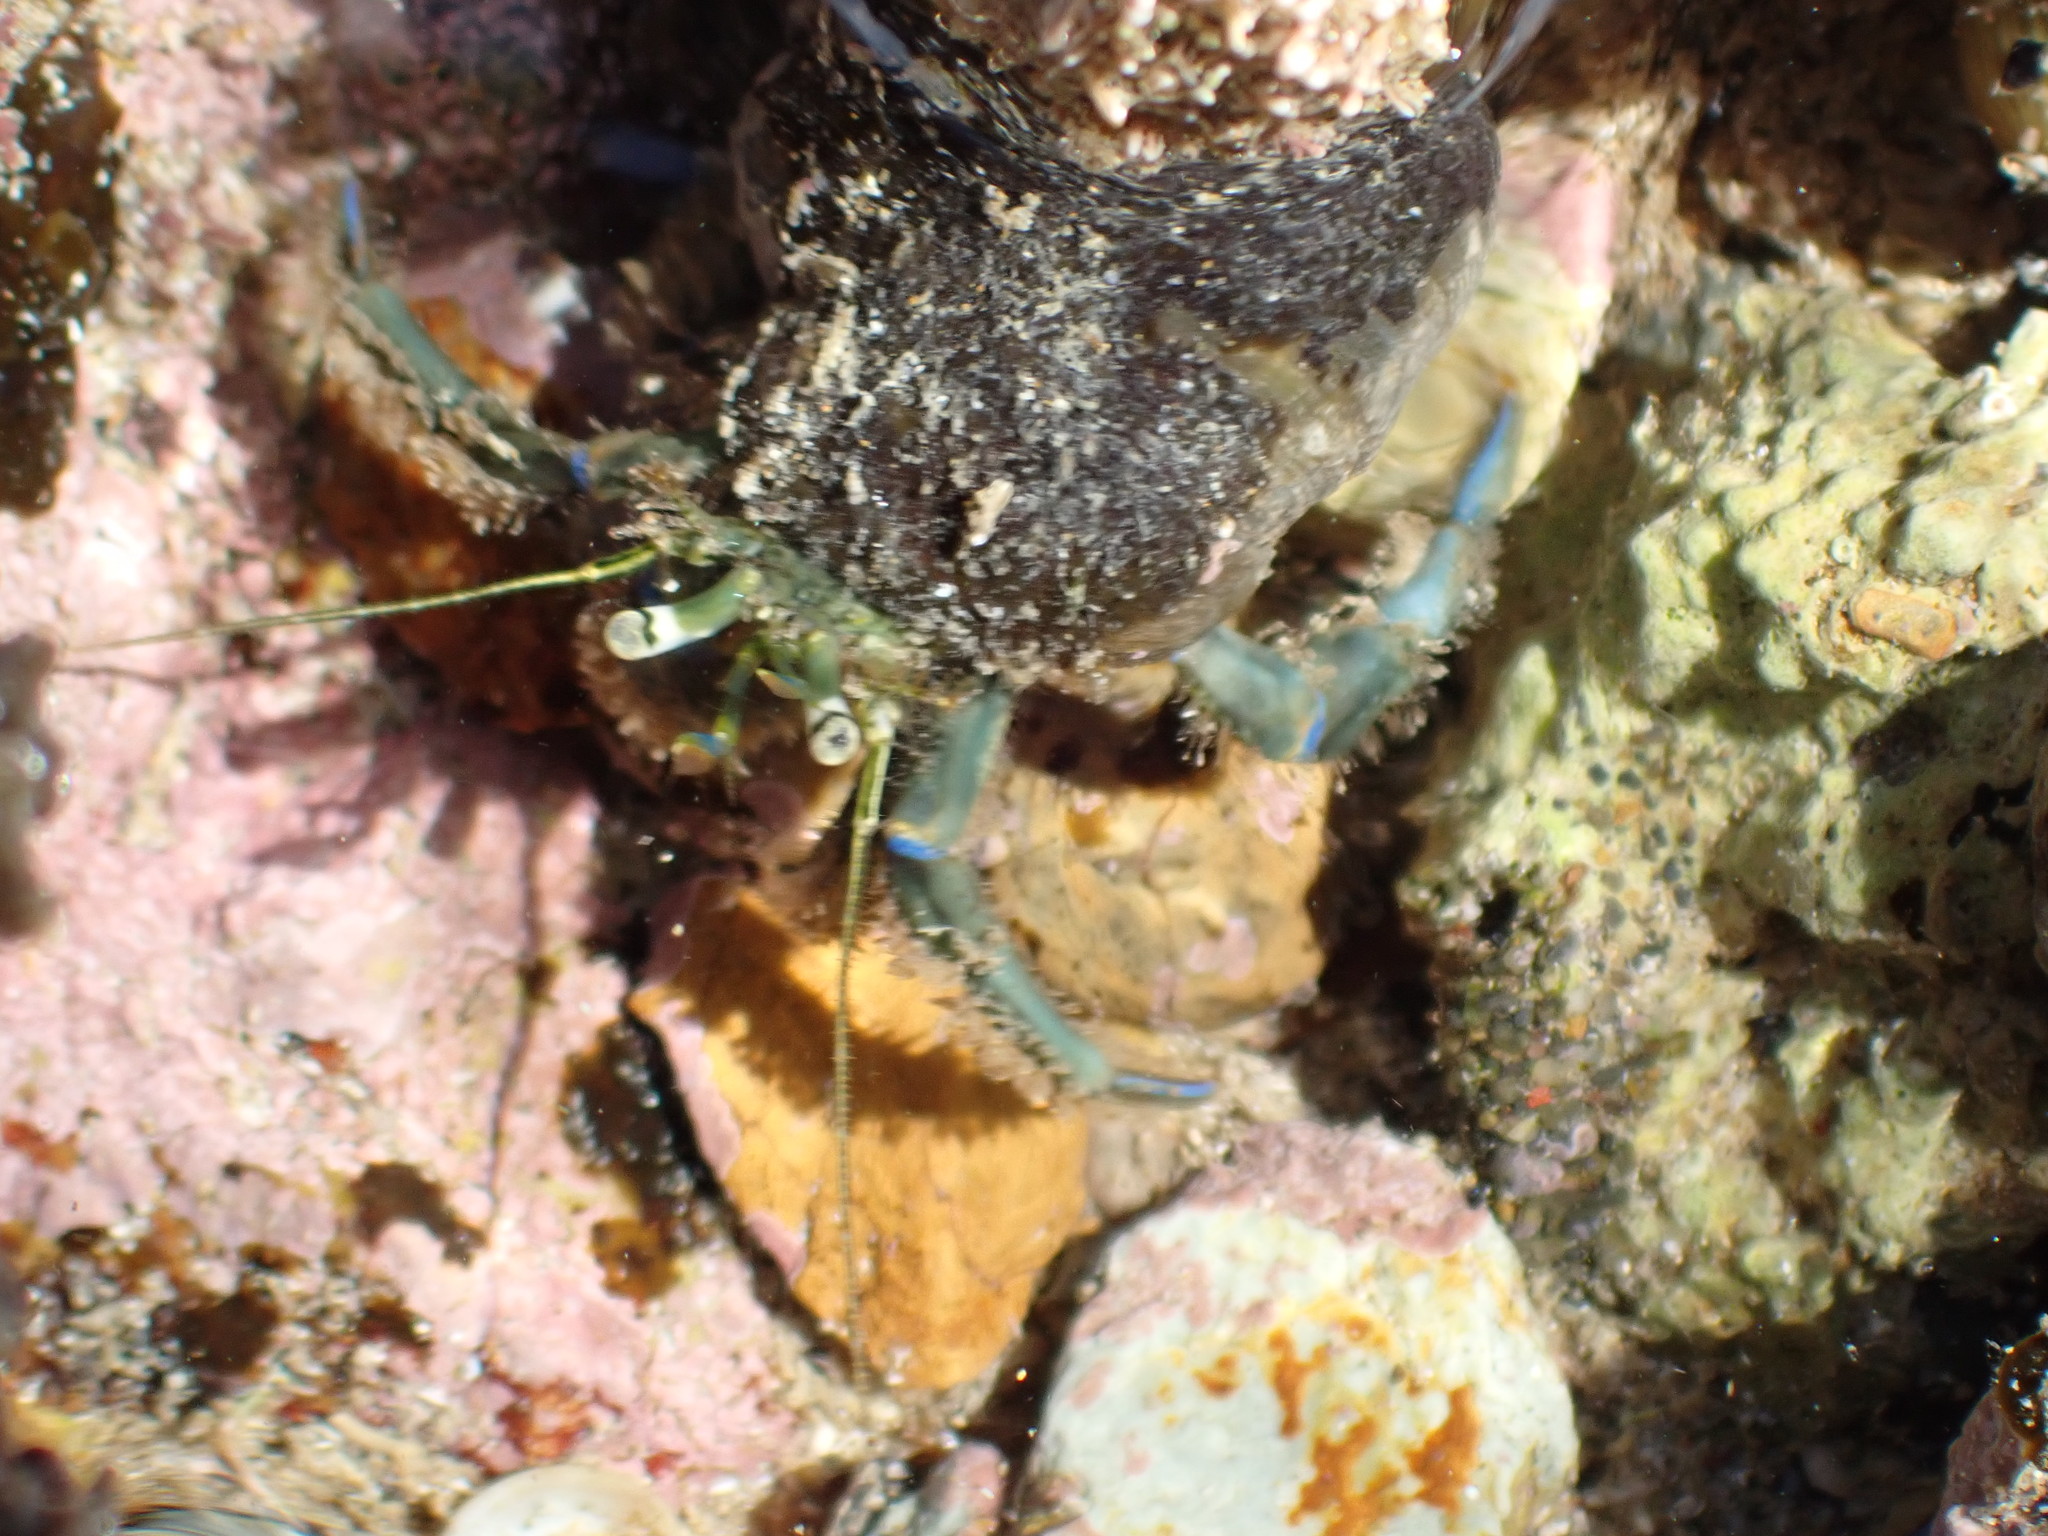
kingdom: Animalia
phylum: Arthropoda
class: Malacostraca
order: Decapoda
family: Paguridae
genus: Pagurus
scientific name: Pagurus novizealandiae
